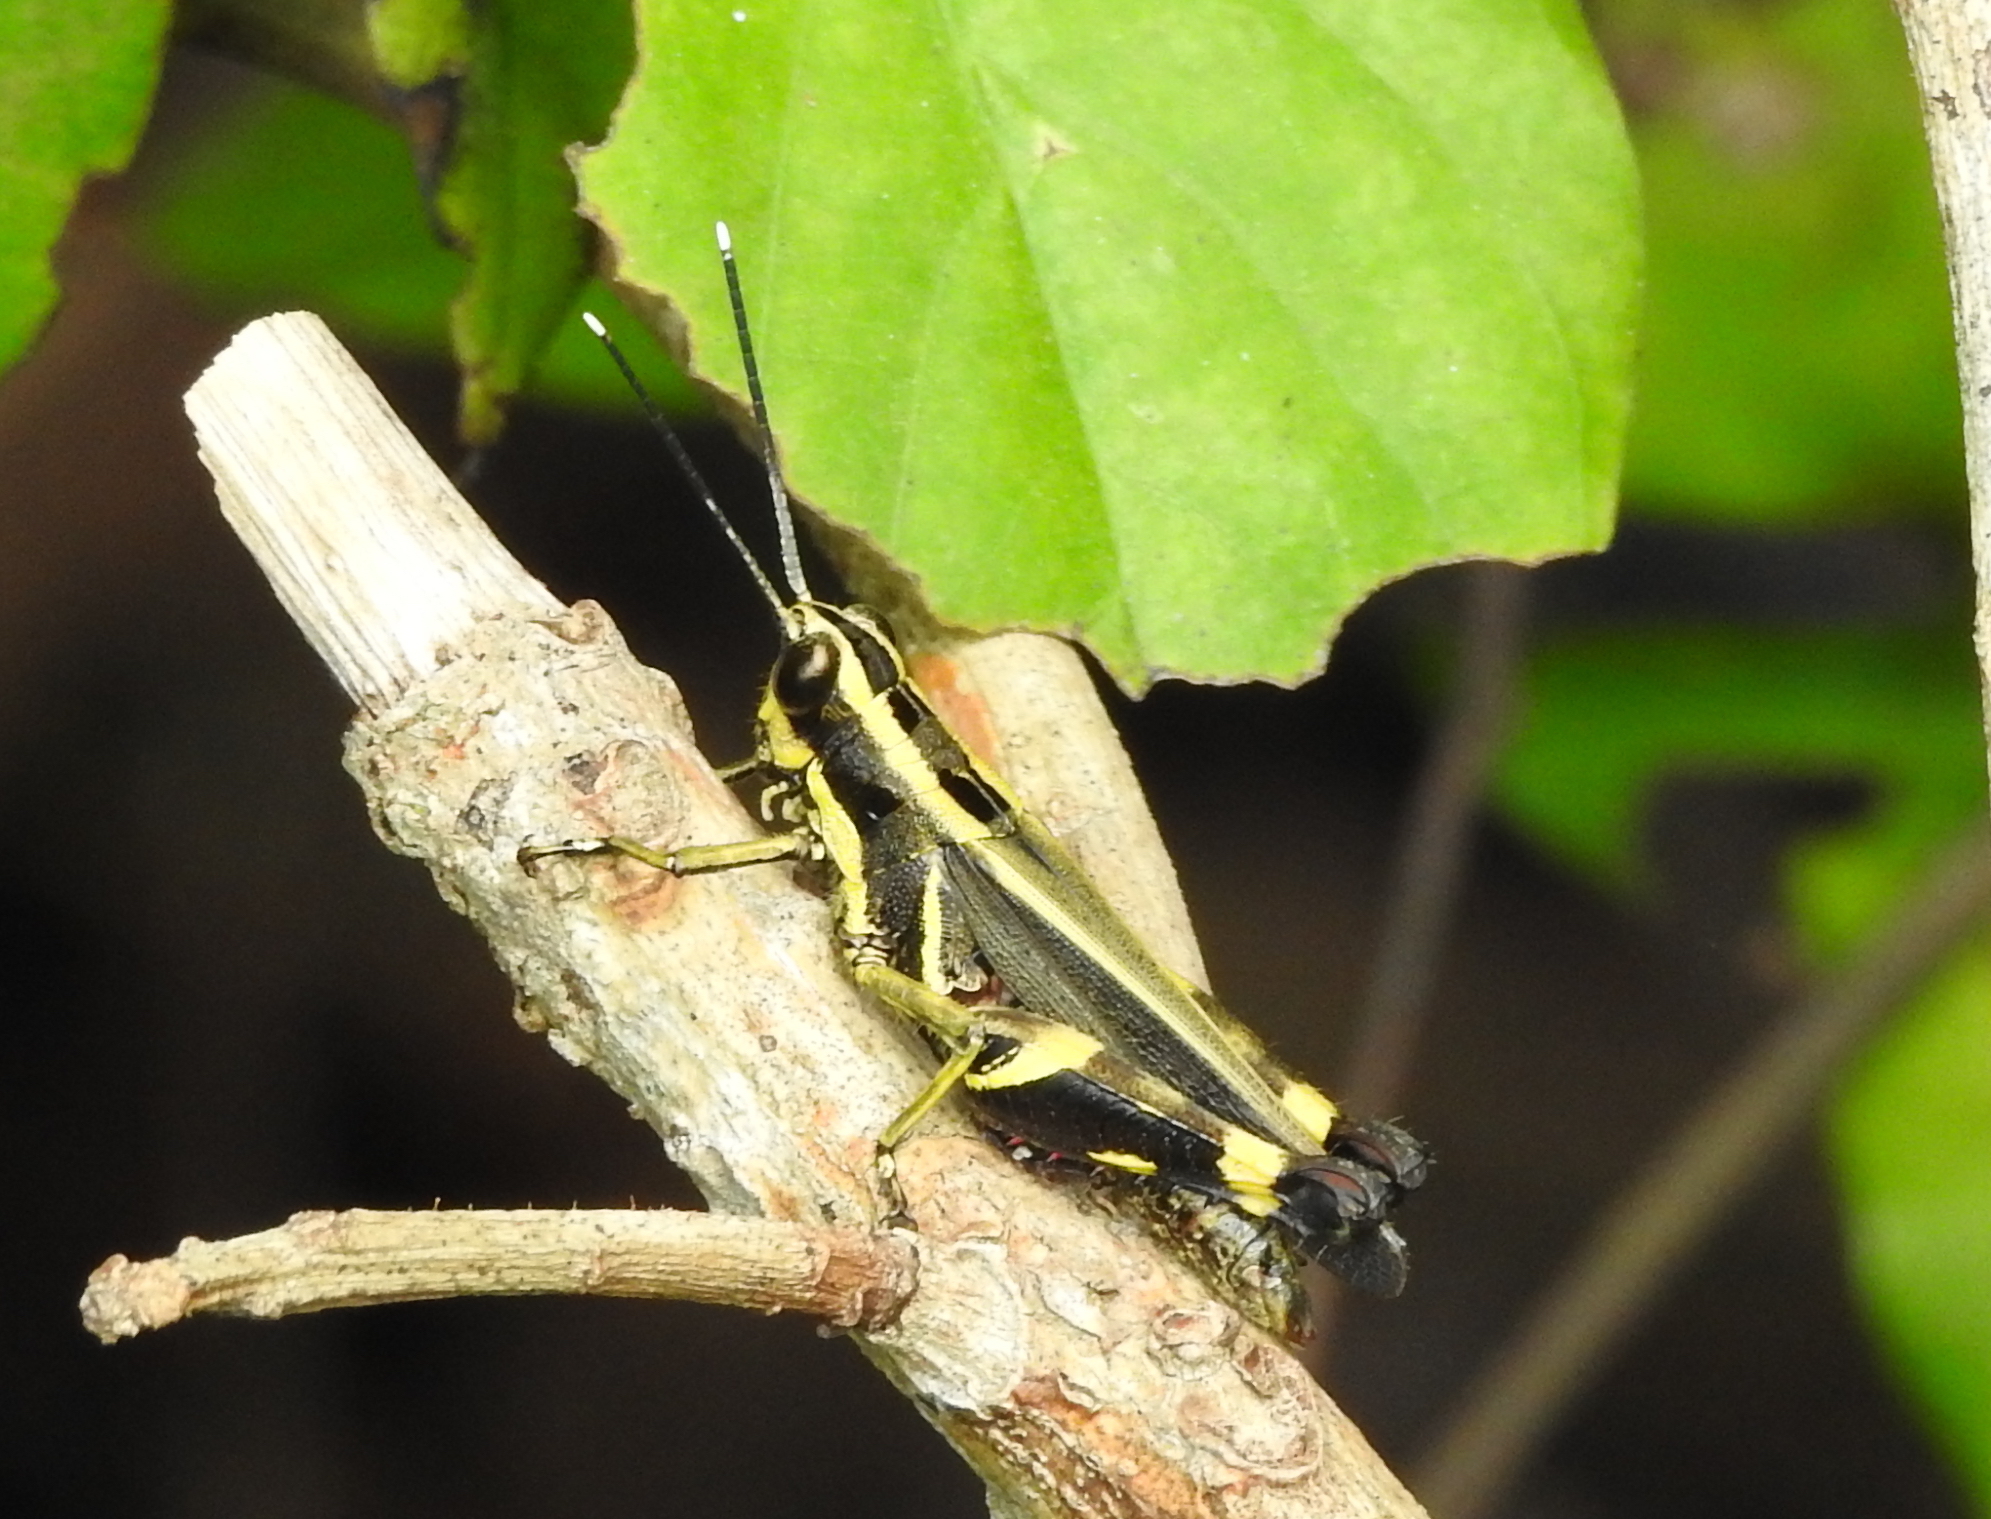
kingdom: Animalia
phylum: Arthropoda
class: Insecta
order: Orthoptera
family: Acrididae
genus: Traulia
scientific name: Traulia azureipennis
